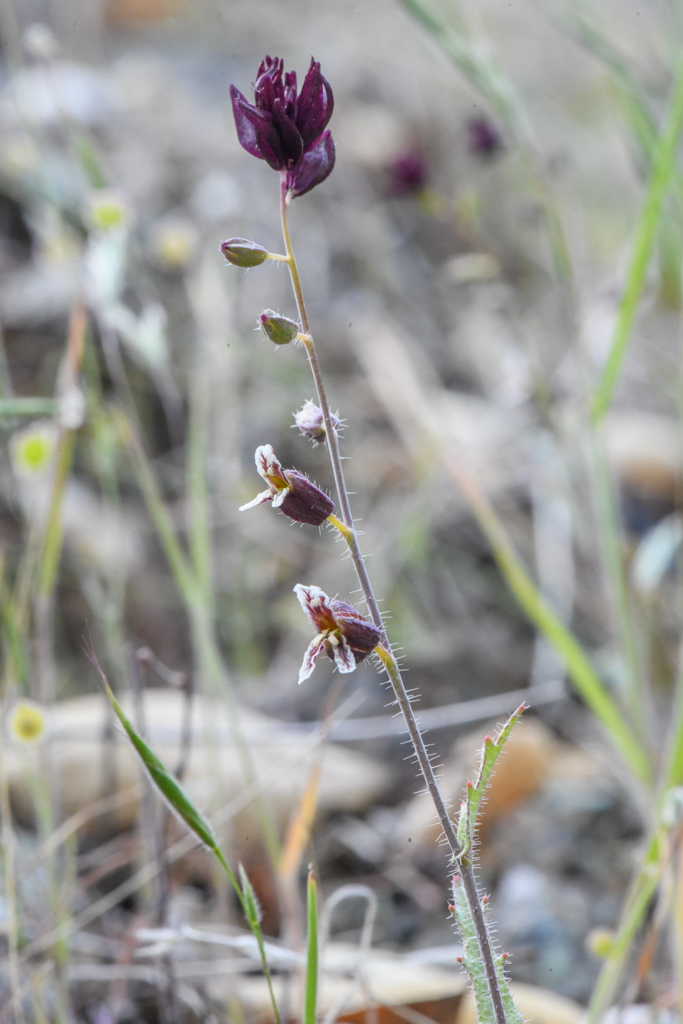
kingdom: Plantae
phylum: Tracheophyta
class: Magnoliopsida
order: Brassicales
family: Brassicaceae
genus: Streptanthus
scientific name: Streptanthus insignis
